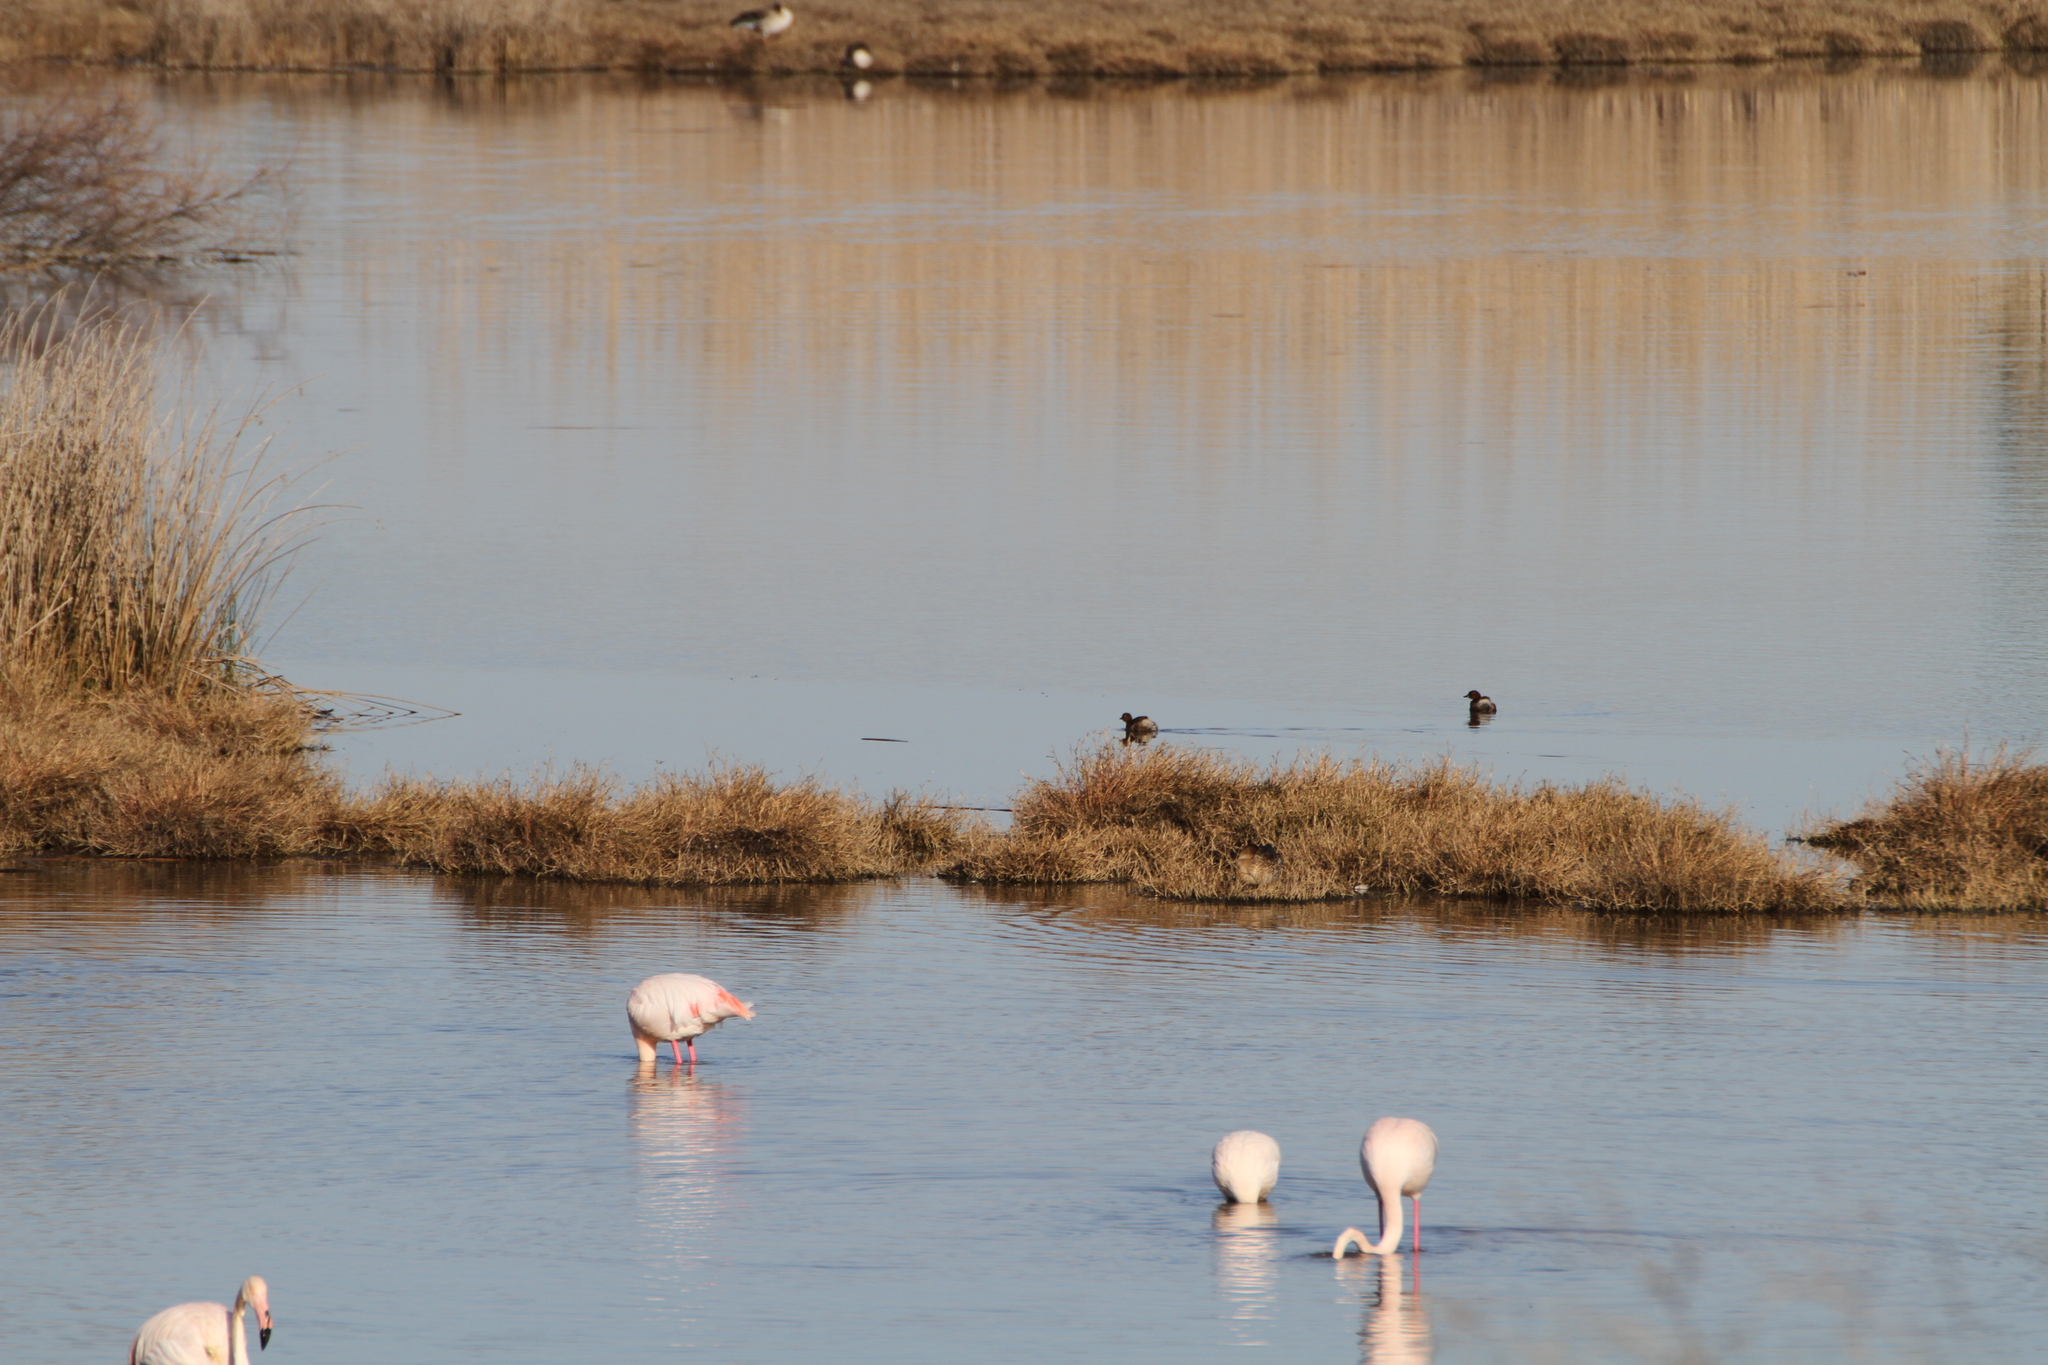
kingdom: Animalia
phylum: Chordata
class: Aves
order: Podicipediformes
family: Podicipedidae
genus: Tachybaptus
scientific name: Tachybaptus ruficollis
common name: Little grebe
